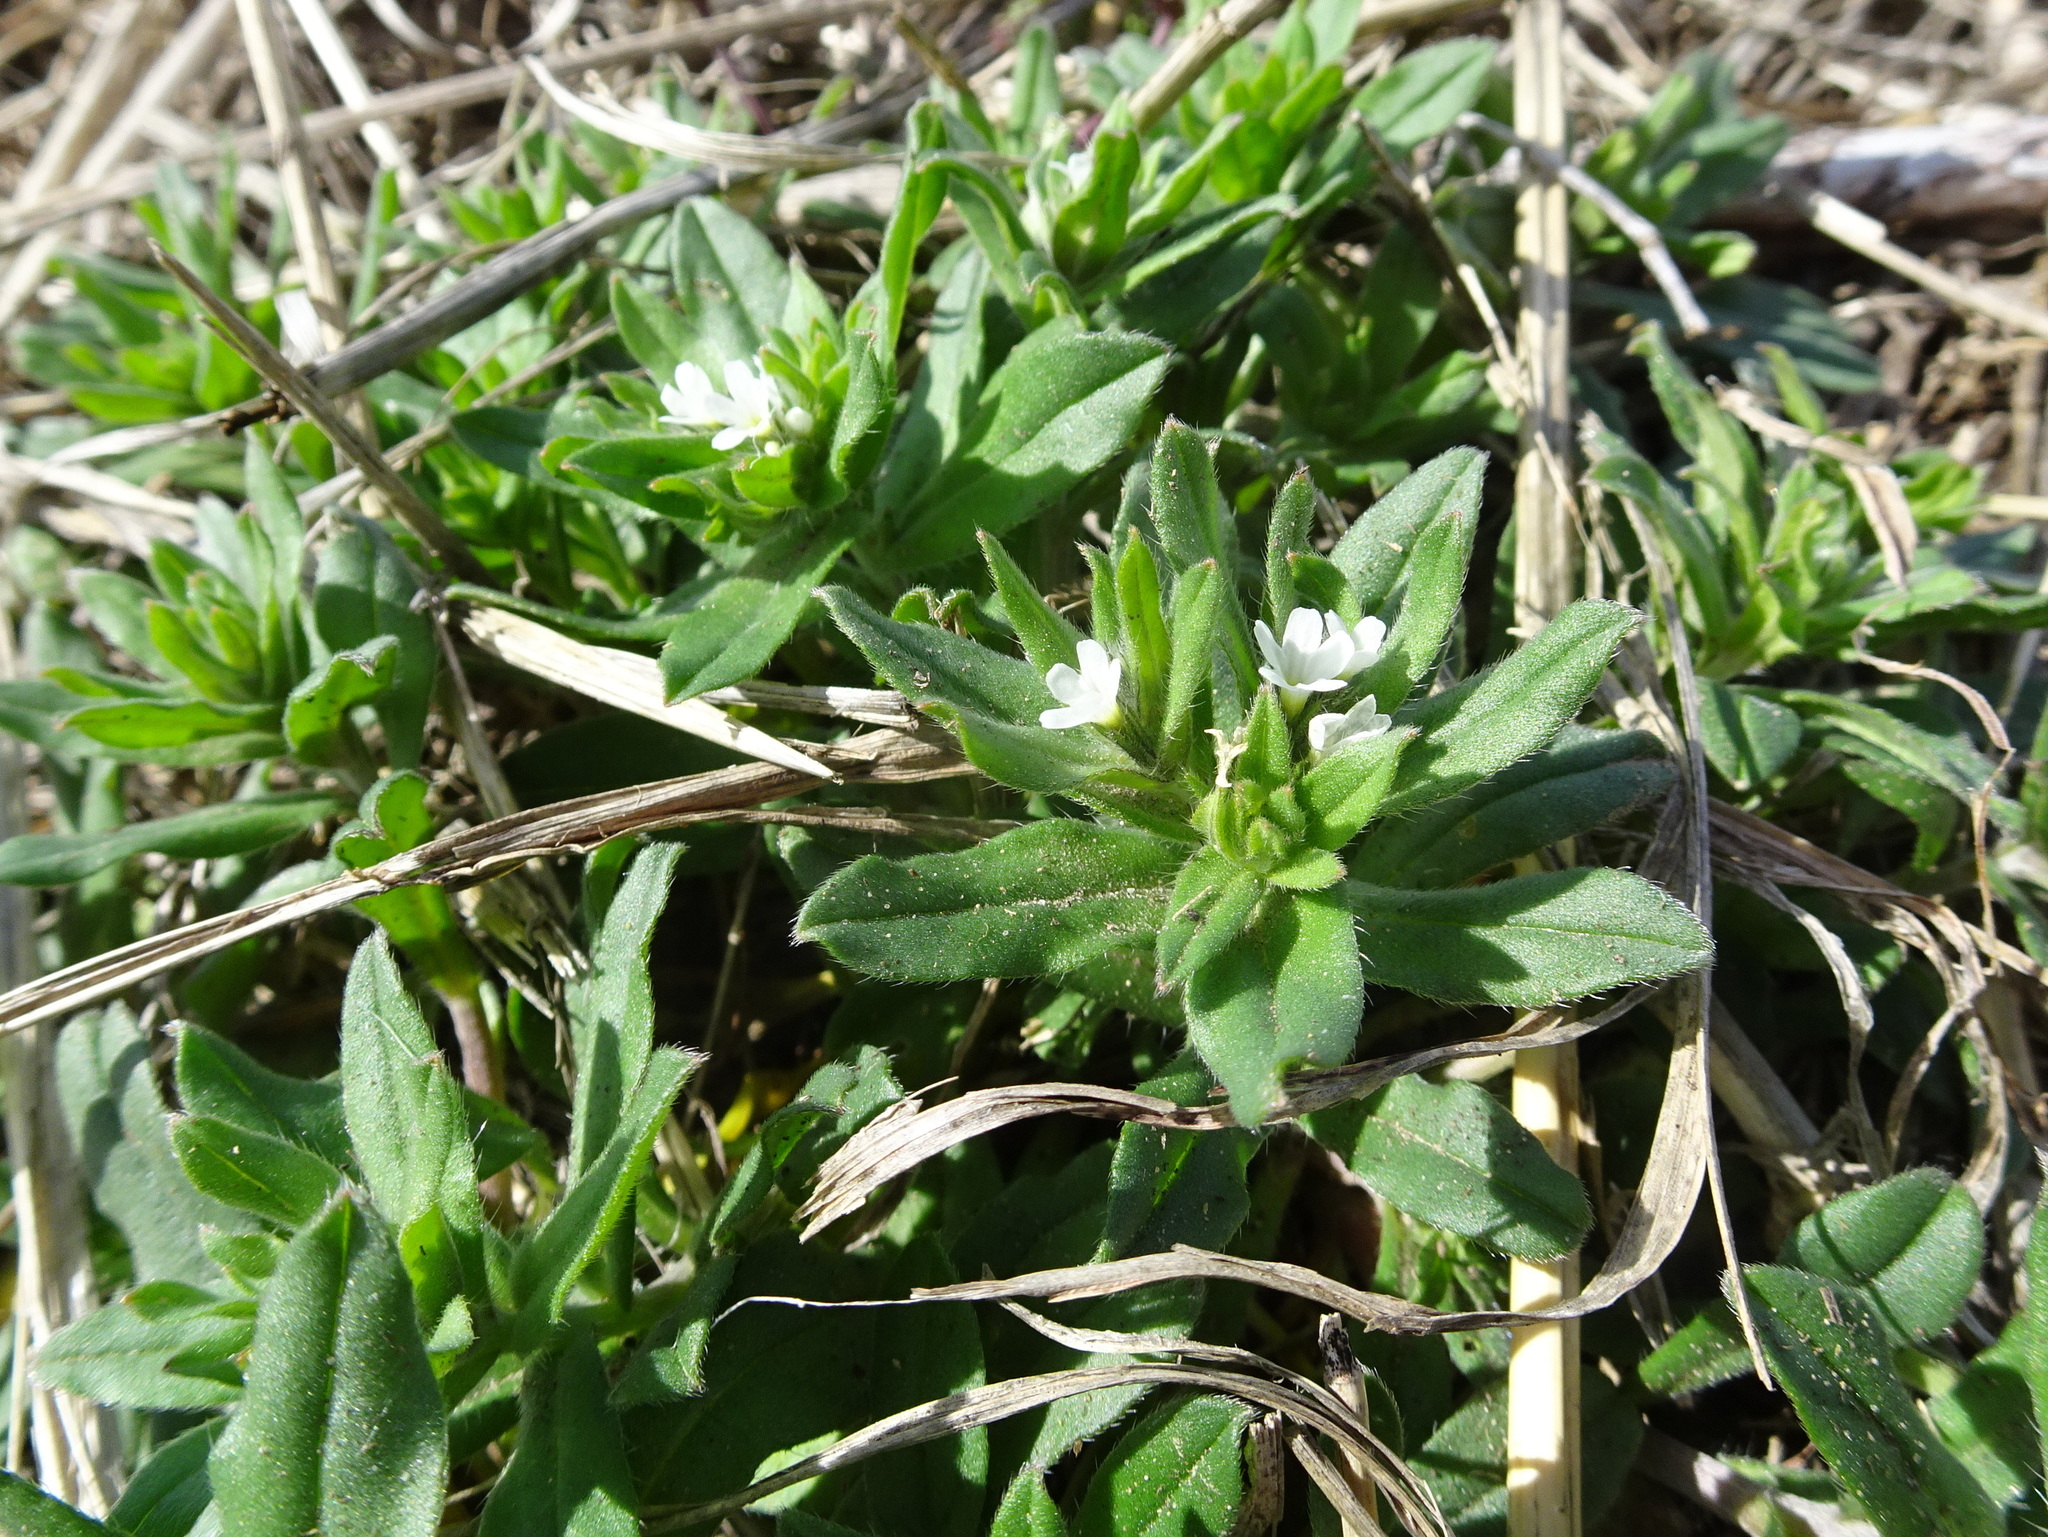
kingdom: Plantae
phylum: Tracheophyta
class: Magnoliopsida
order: Boraginales
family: Boraginaceae
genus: Buglossoides
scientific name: Buglossoides arvensis
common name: Corn gromwell
